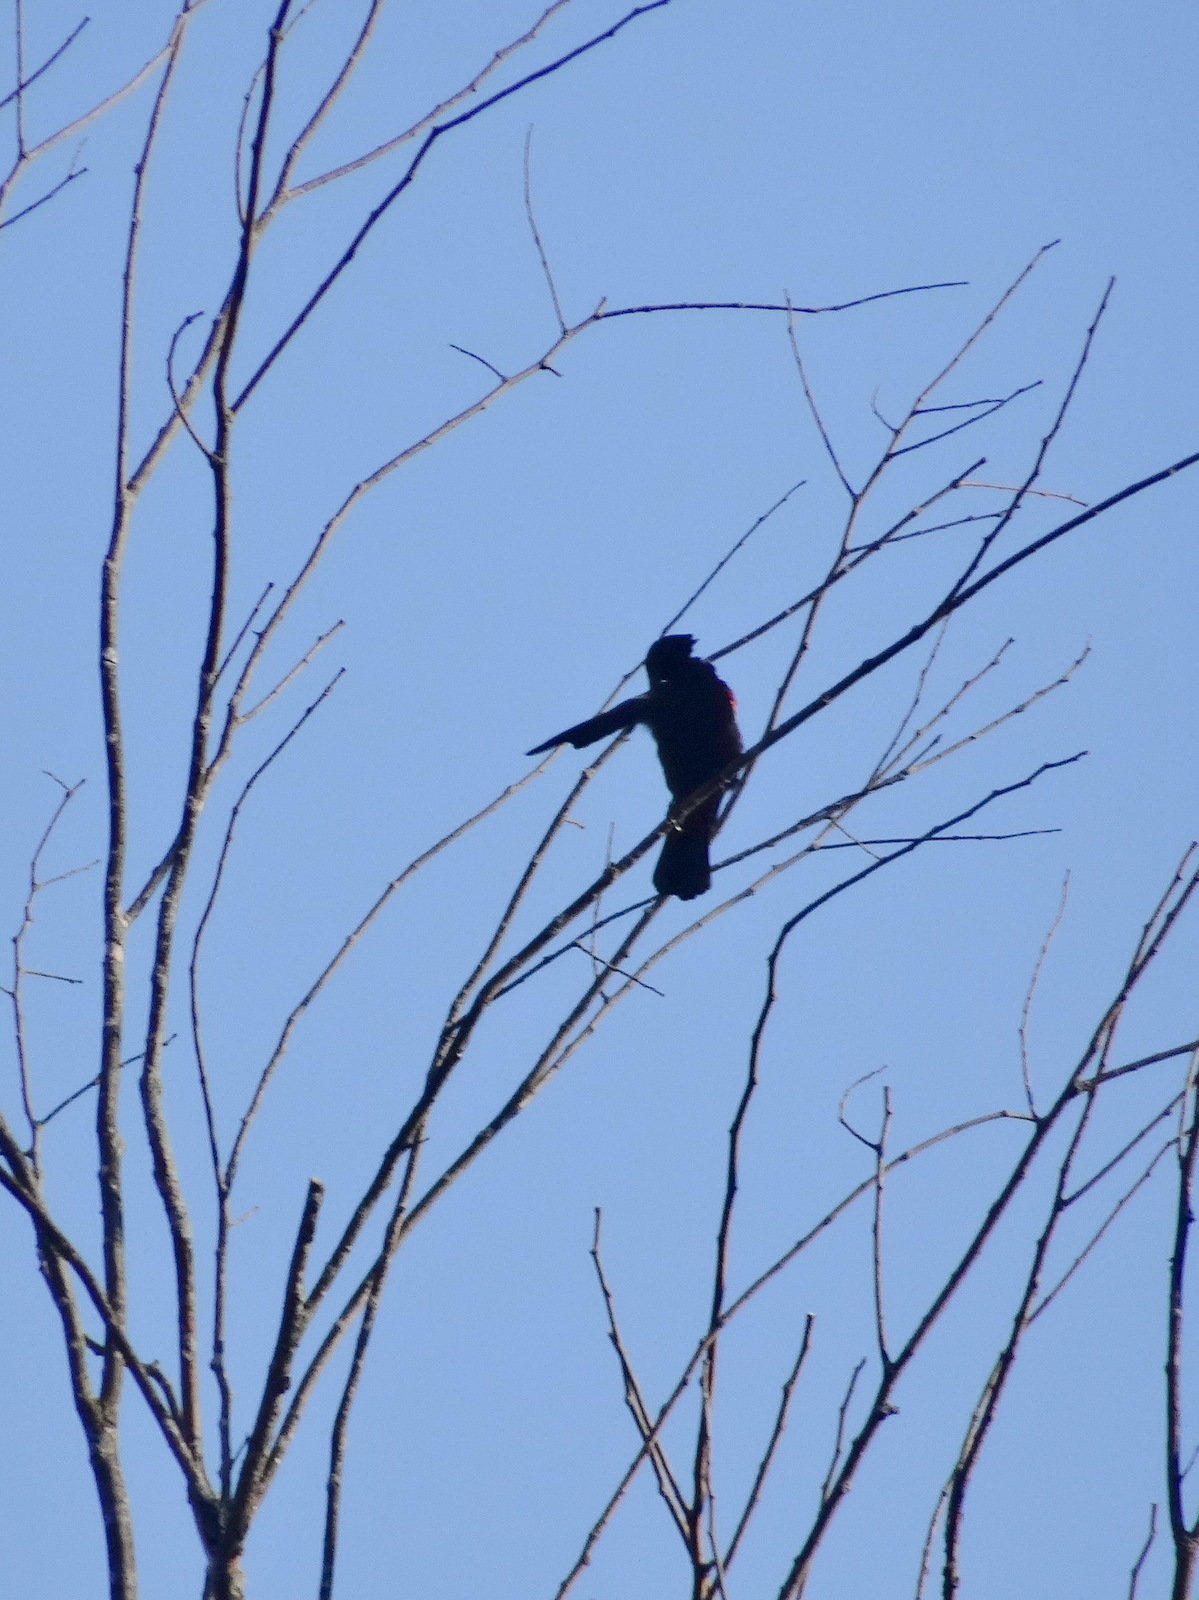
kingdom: Animalia
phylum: Chordata
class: Aves
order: Passeriformes
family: Icteridae
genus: Agelaius
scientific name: Agelaius phoeniceus
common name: Red-winged blackbird
